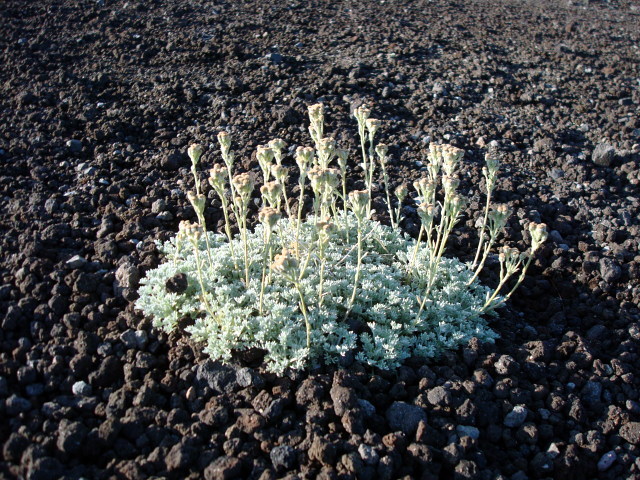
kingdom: Plantae
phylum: Tracheophyta
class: Magnoliopsida
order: Asterales
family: Asteraceae
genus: Artemisia
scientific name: Artemisia glomerata
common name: Pacific alpine wormwood
